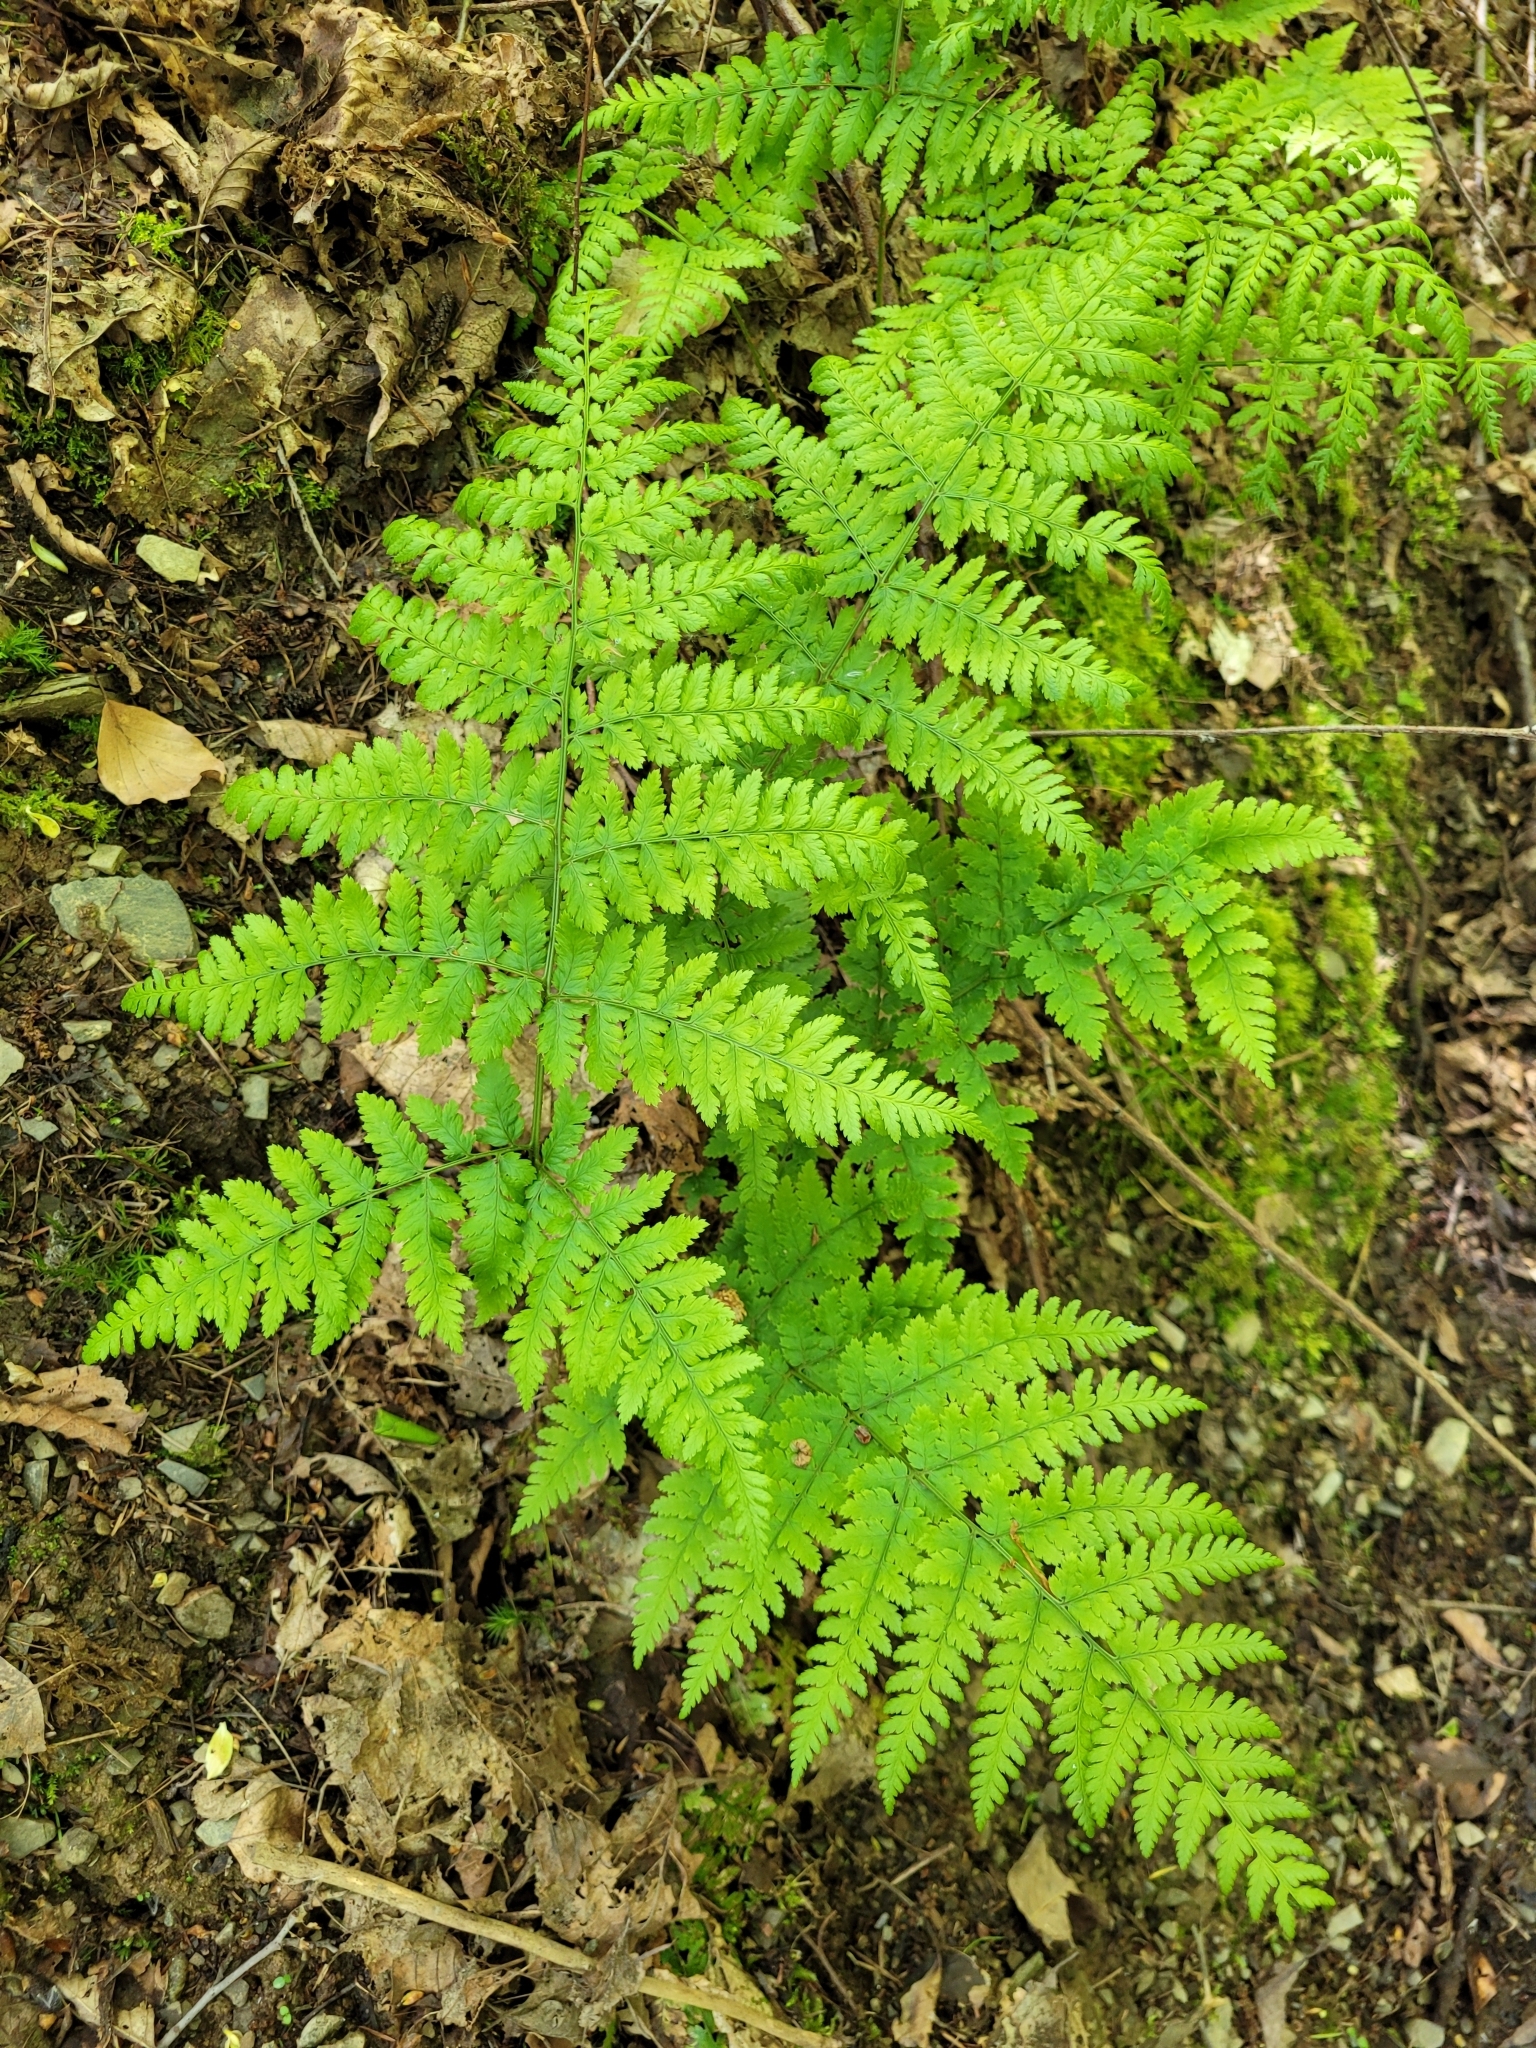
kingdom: Plantae
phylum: Tracheophyta
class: Polypodiopsida
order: Polypodiales
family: Dryopteridaceae
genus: Dryopteris
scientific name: Dryopteris dilatata
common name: Broad buckler-fern
